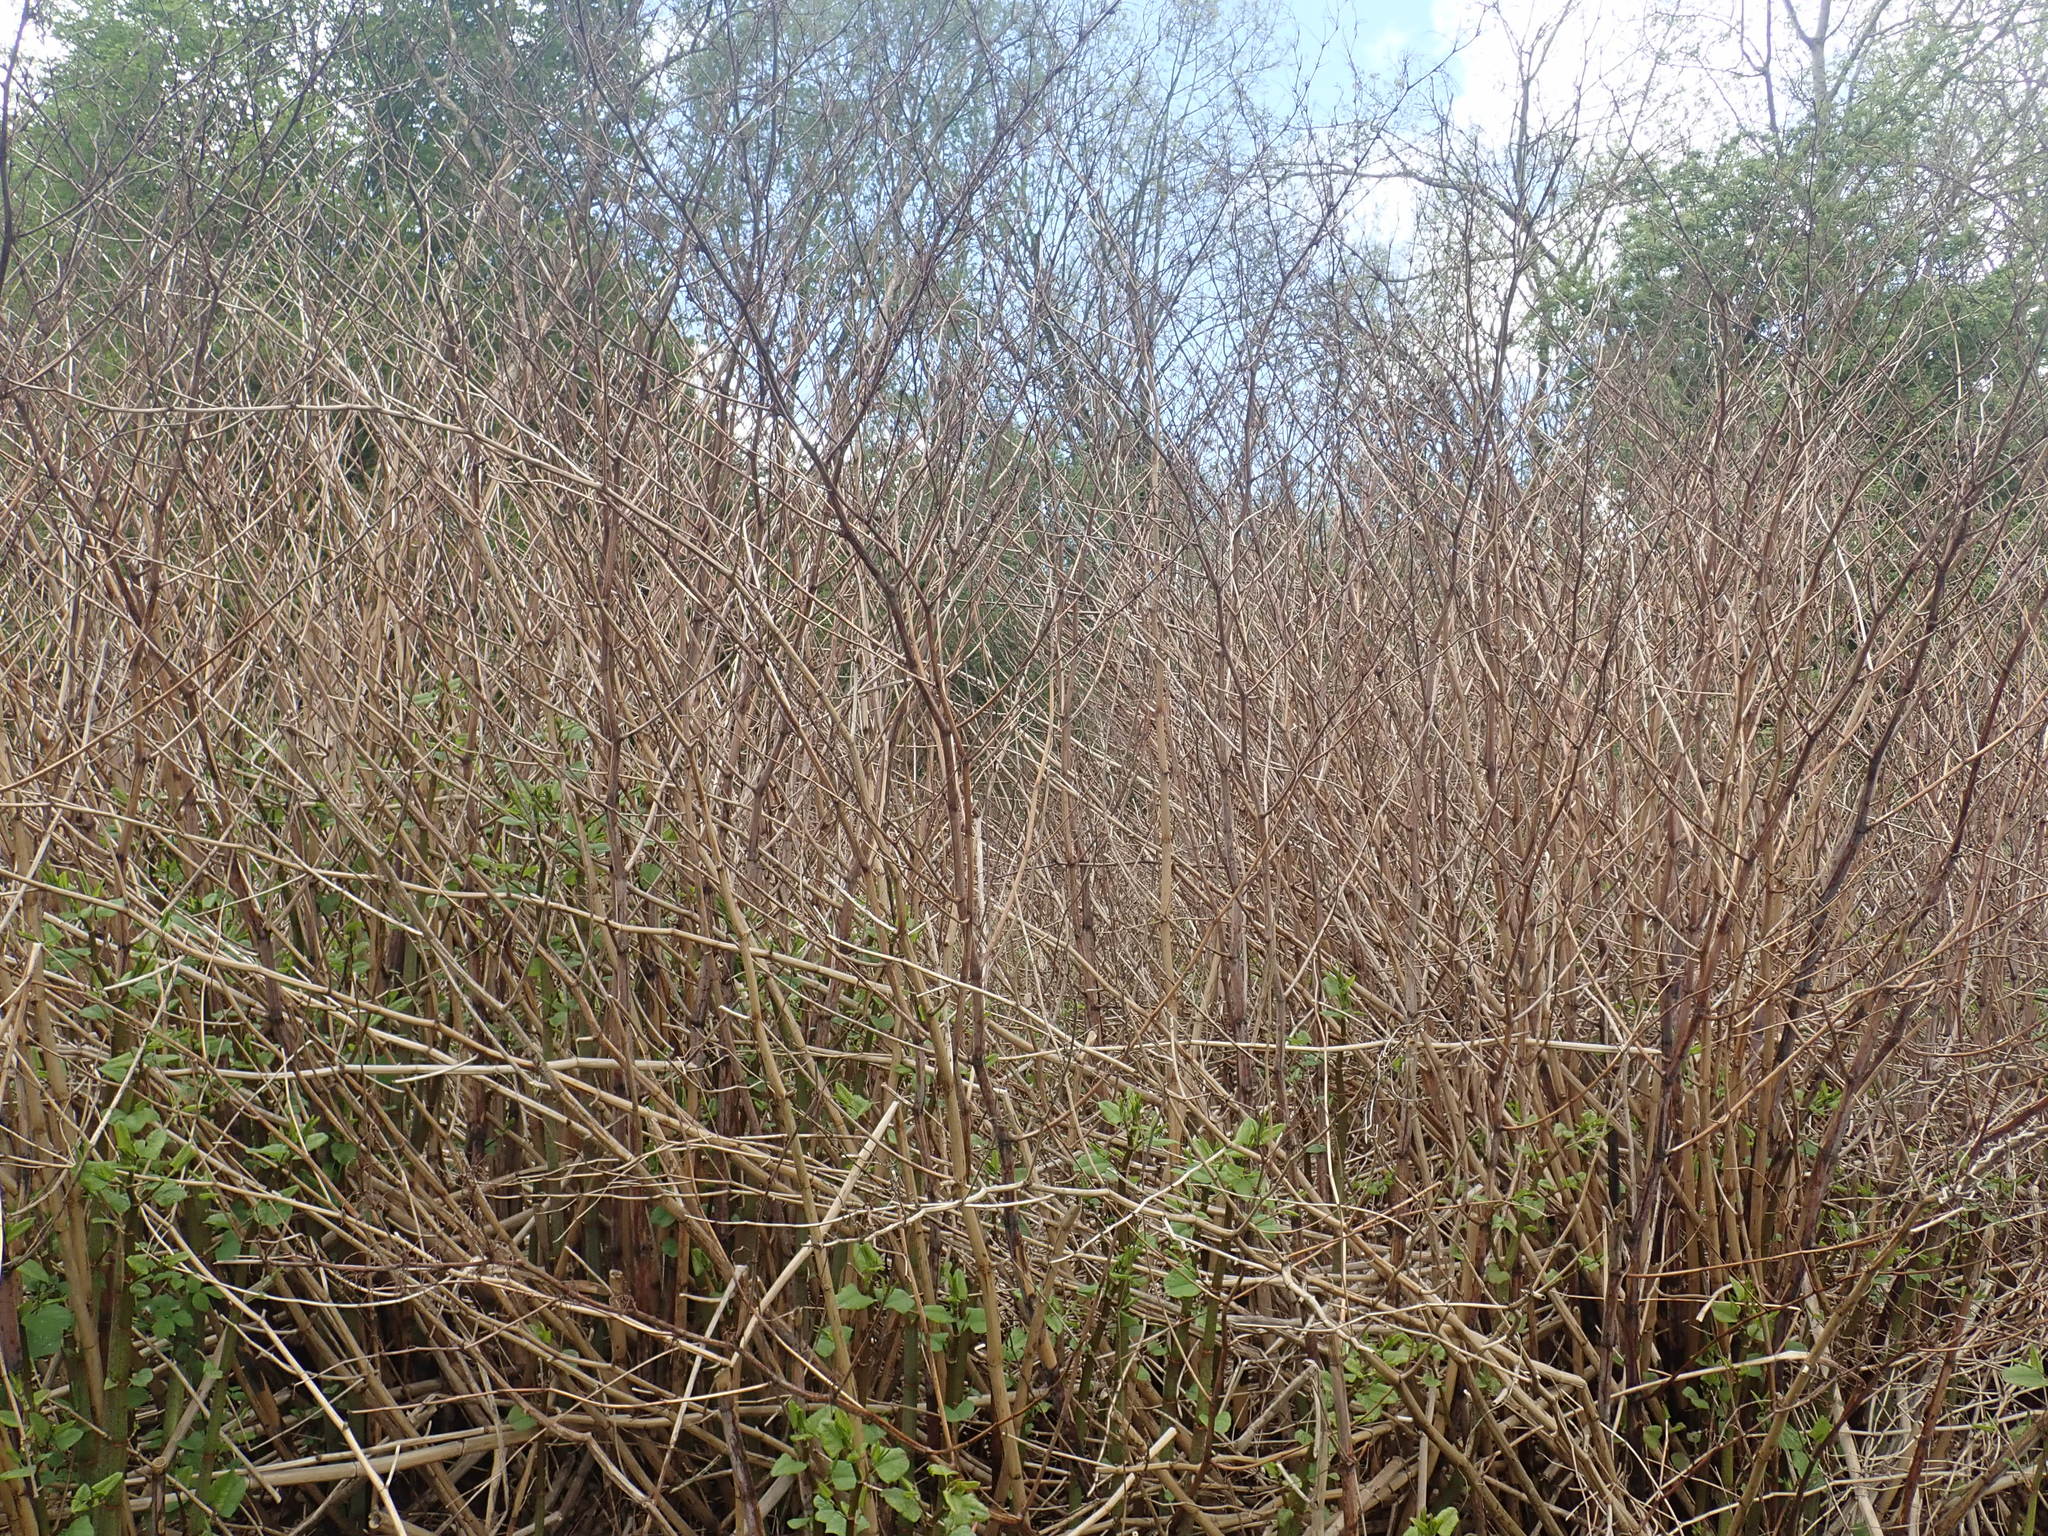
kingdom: Plantae
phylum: Tracheophyta
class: Magnoliopsida
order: Caryophyllales
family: Polygonaceae
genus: Reynoutria
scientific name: Reynoutria
